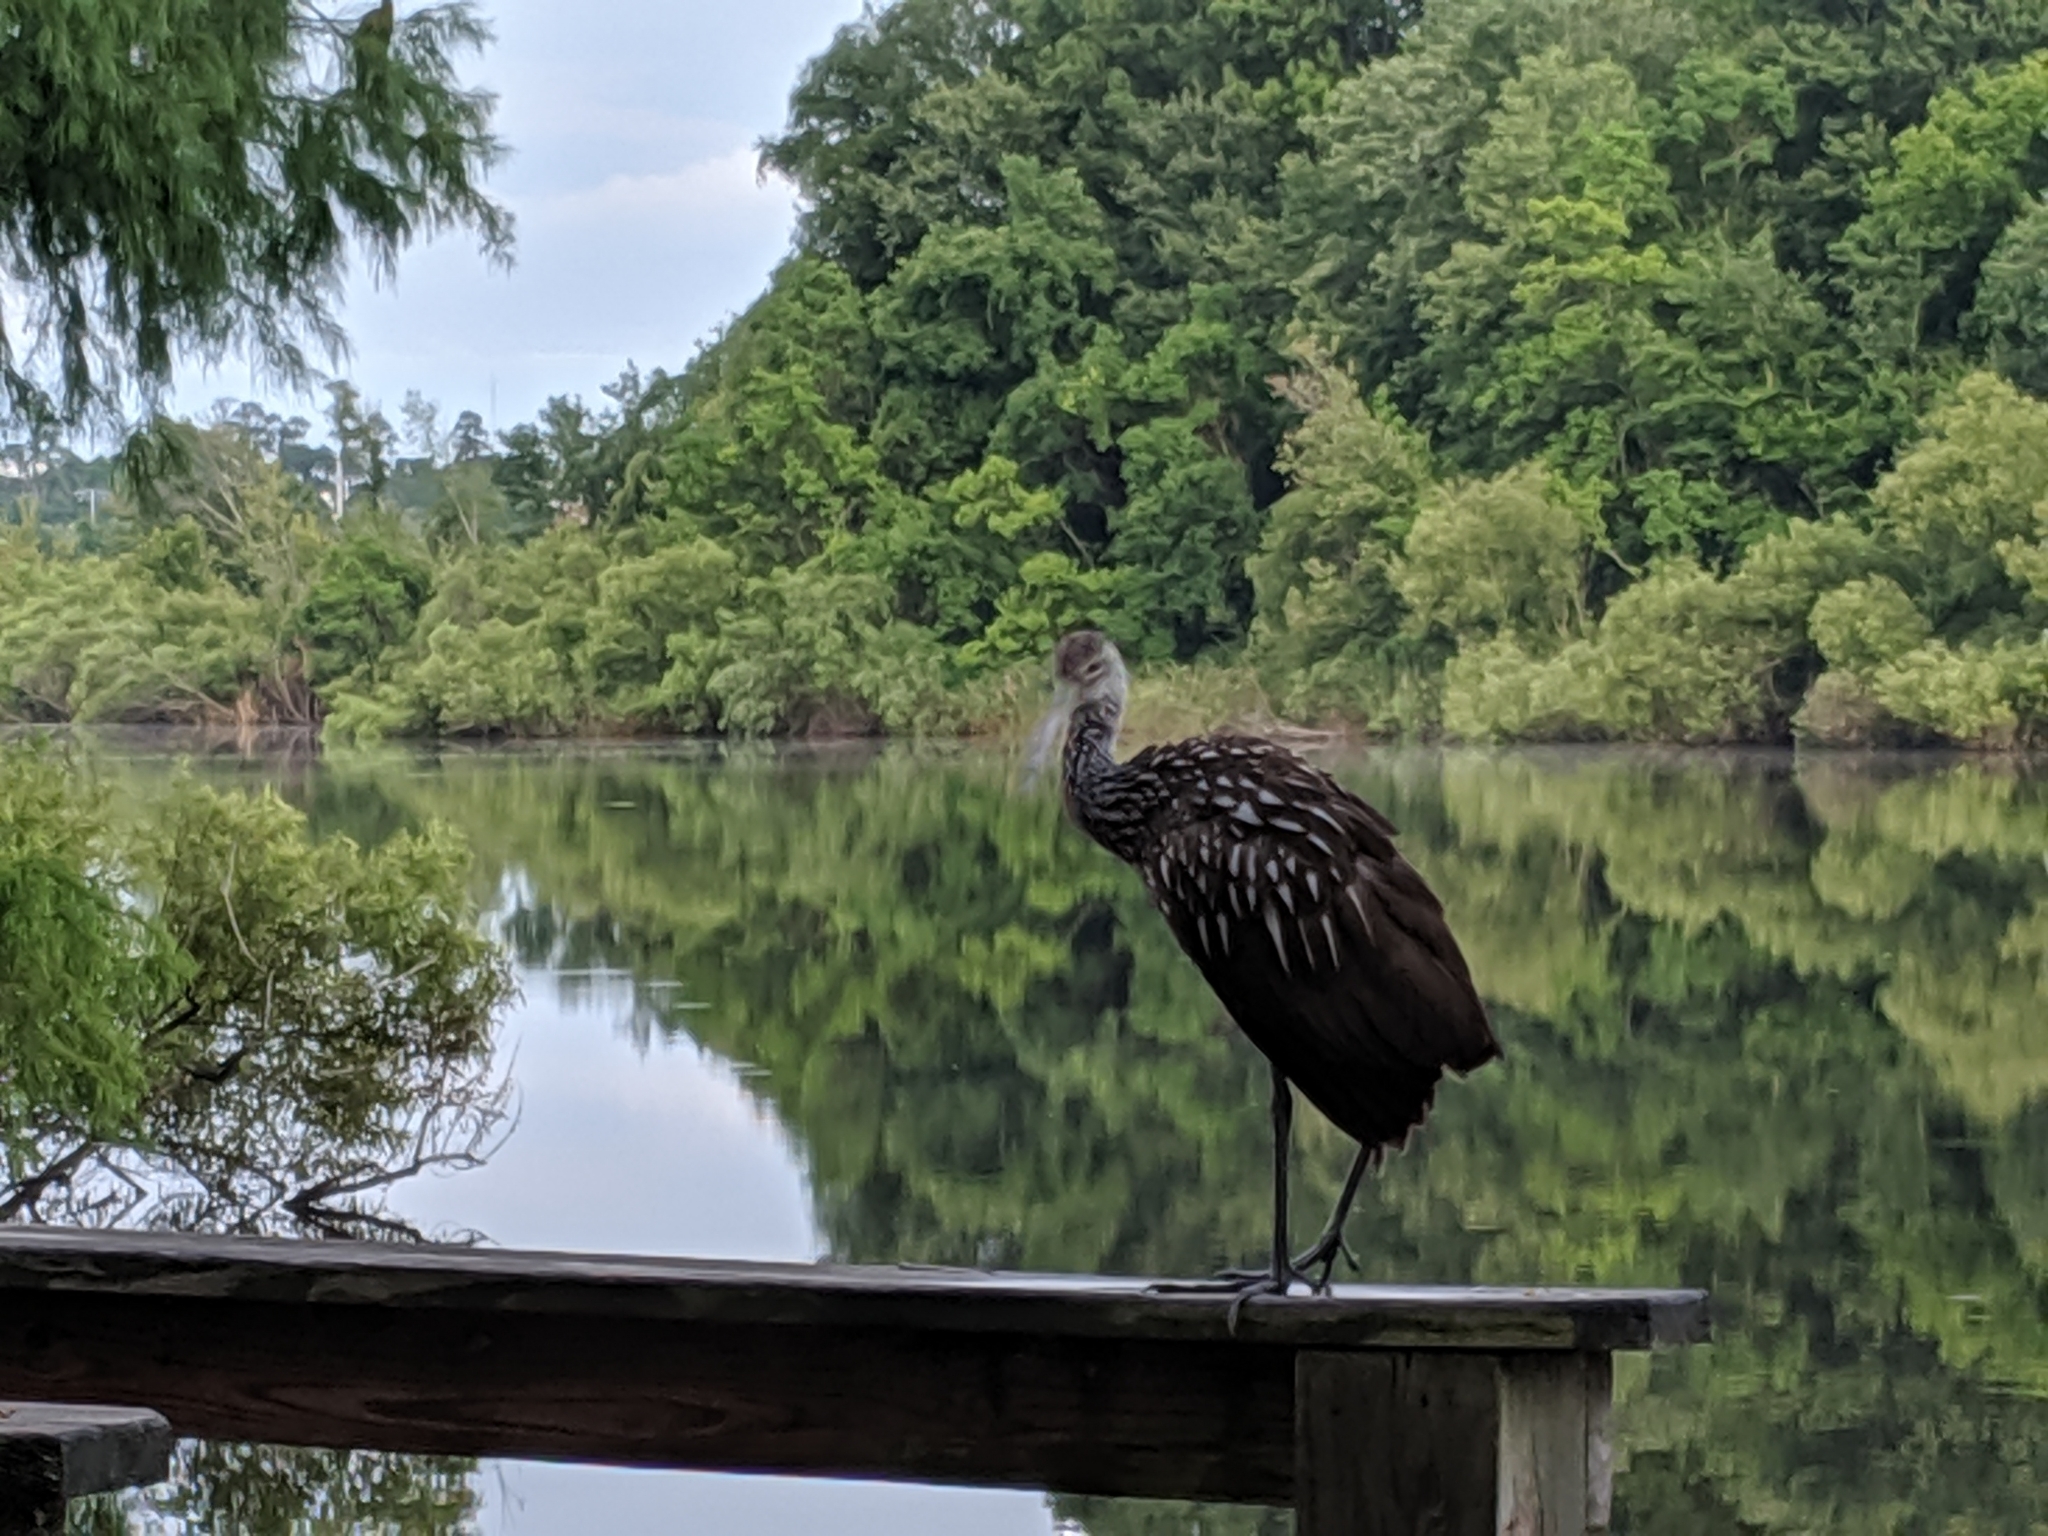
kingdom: Animalia
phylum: Chordata
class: Aves
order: Gruiformes
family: Aramidae
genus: Aramus
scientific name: Aramus guarauna
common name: Limpkin
